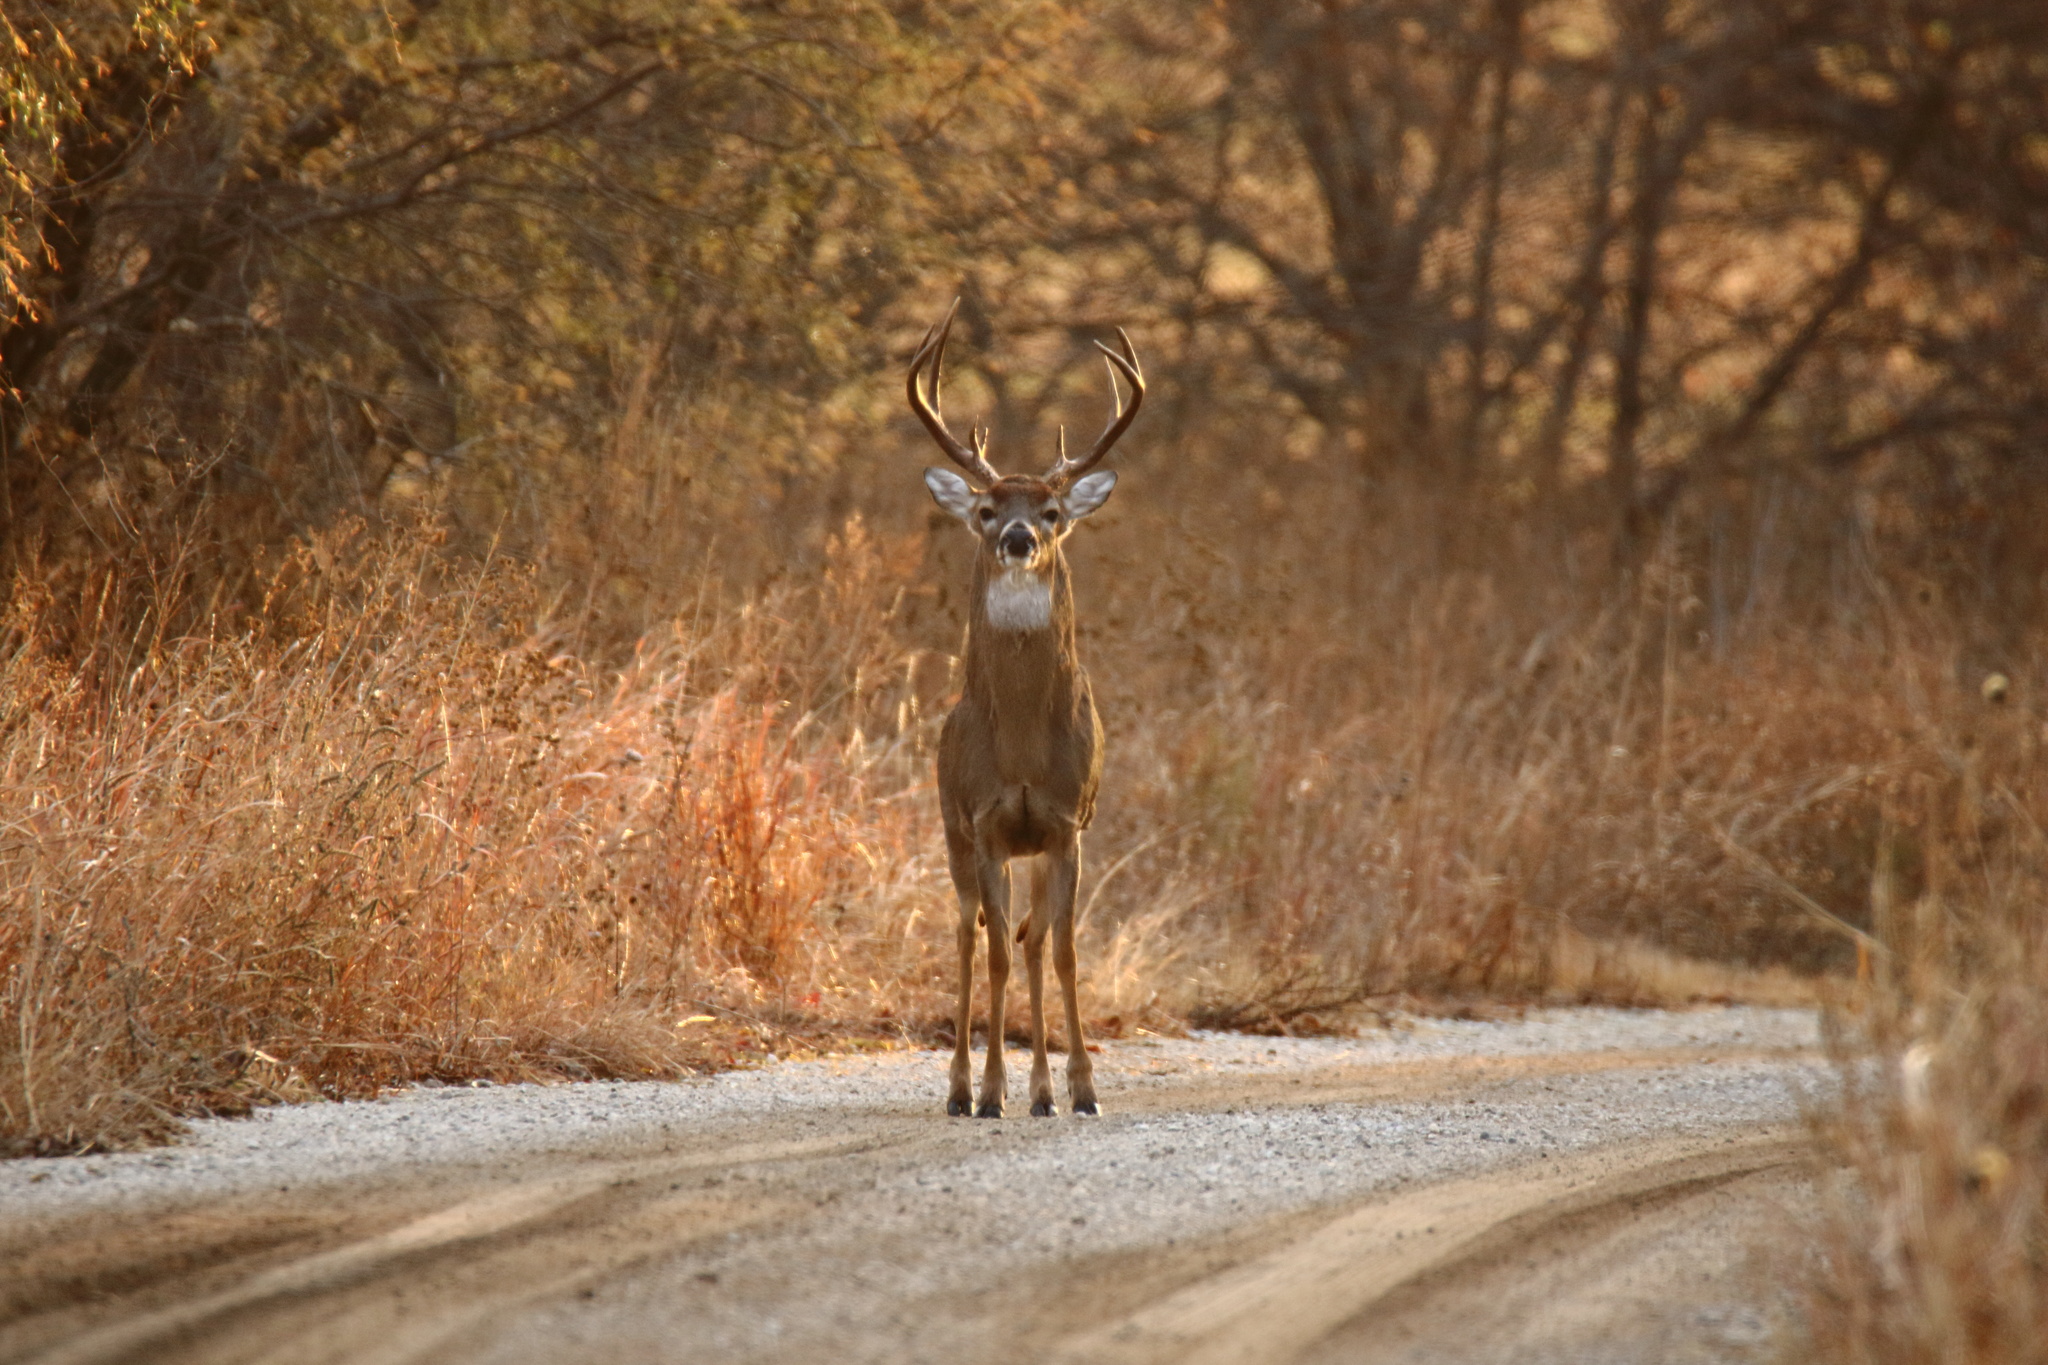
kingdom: Animalia
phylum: Chordata
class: Mammalia
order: Artiodactyla
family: Cervidae
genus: Odocoileus
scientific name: Odocoileus virginianus
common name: White-tailed deer
